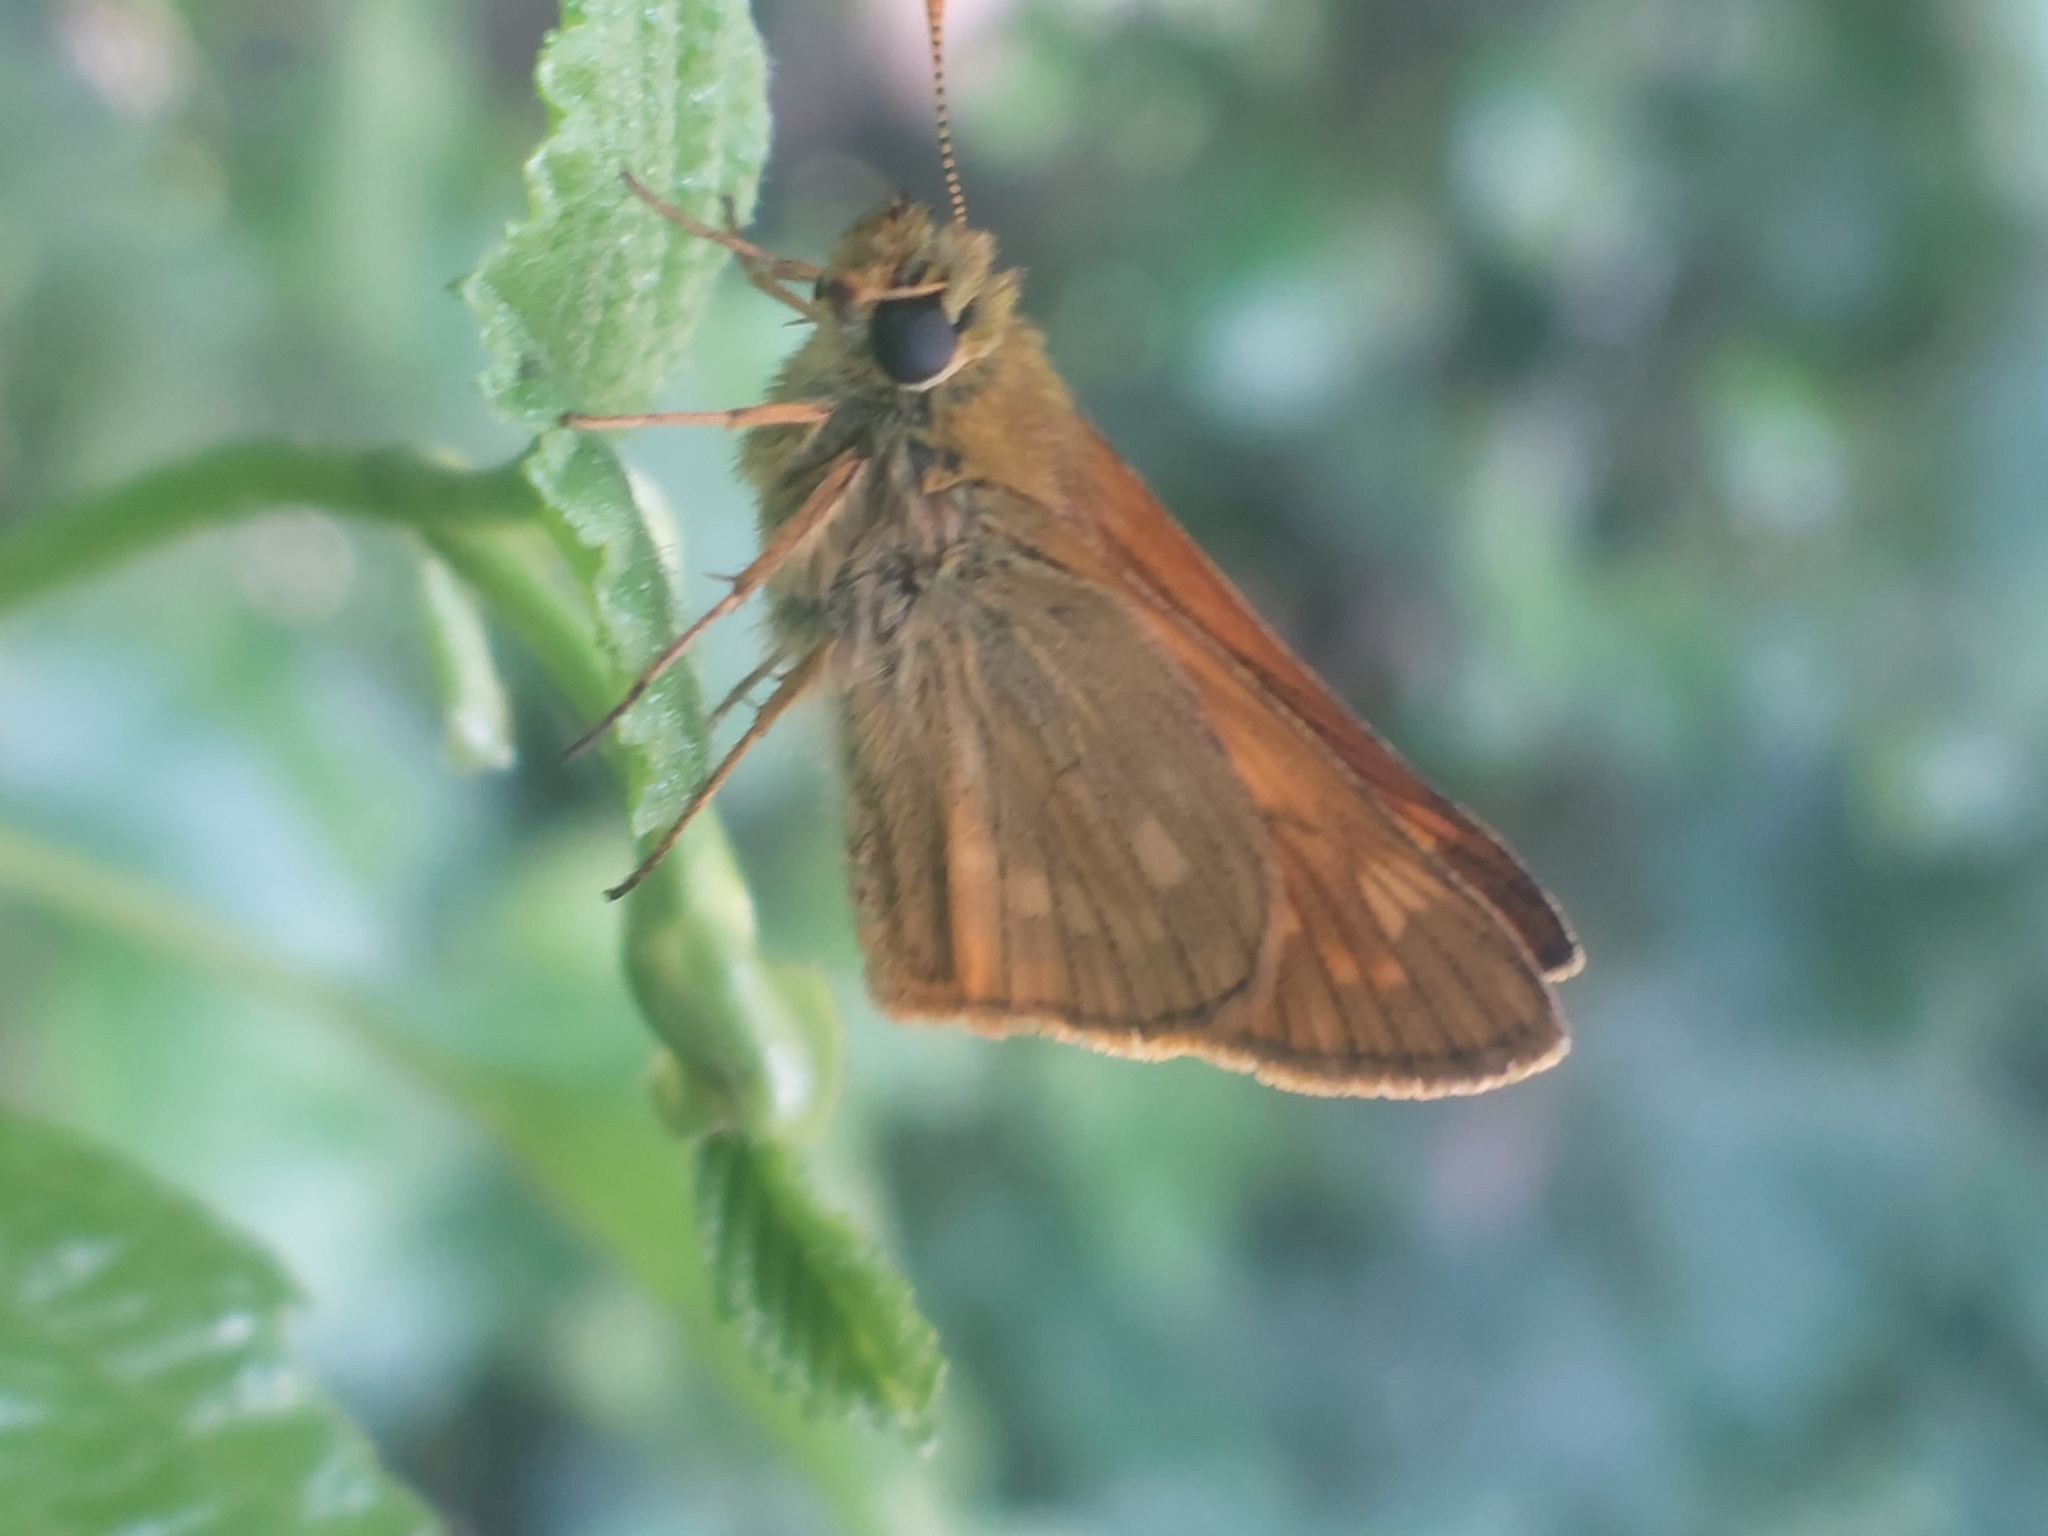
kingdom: Animalia
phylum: Arthropoda
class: Insecta
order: Lepidoptera
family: Hesperiidae
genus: Ochlodes
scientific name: Ochlodes venata
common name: Large skipper
